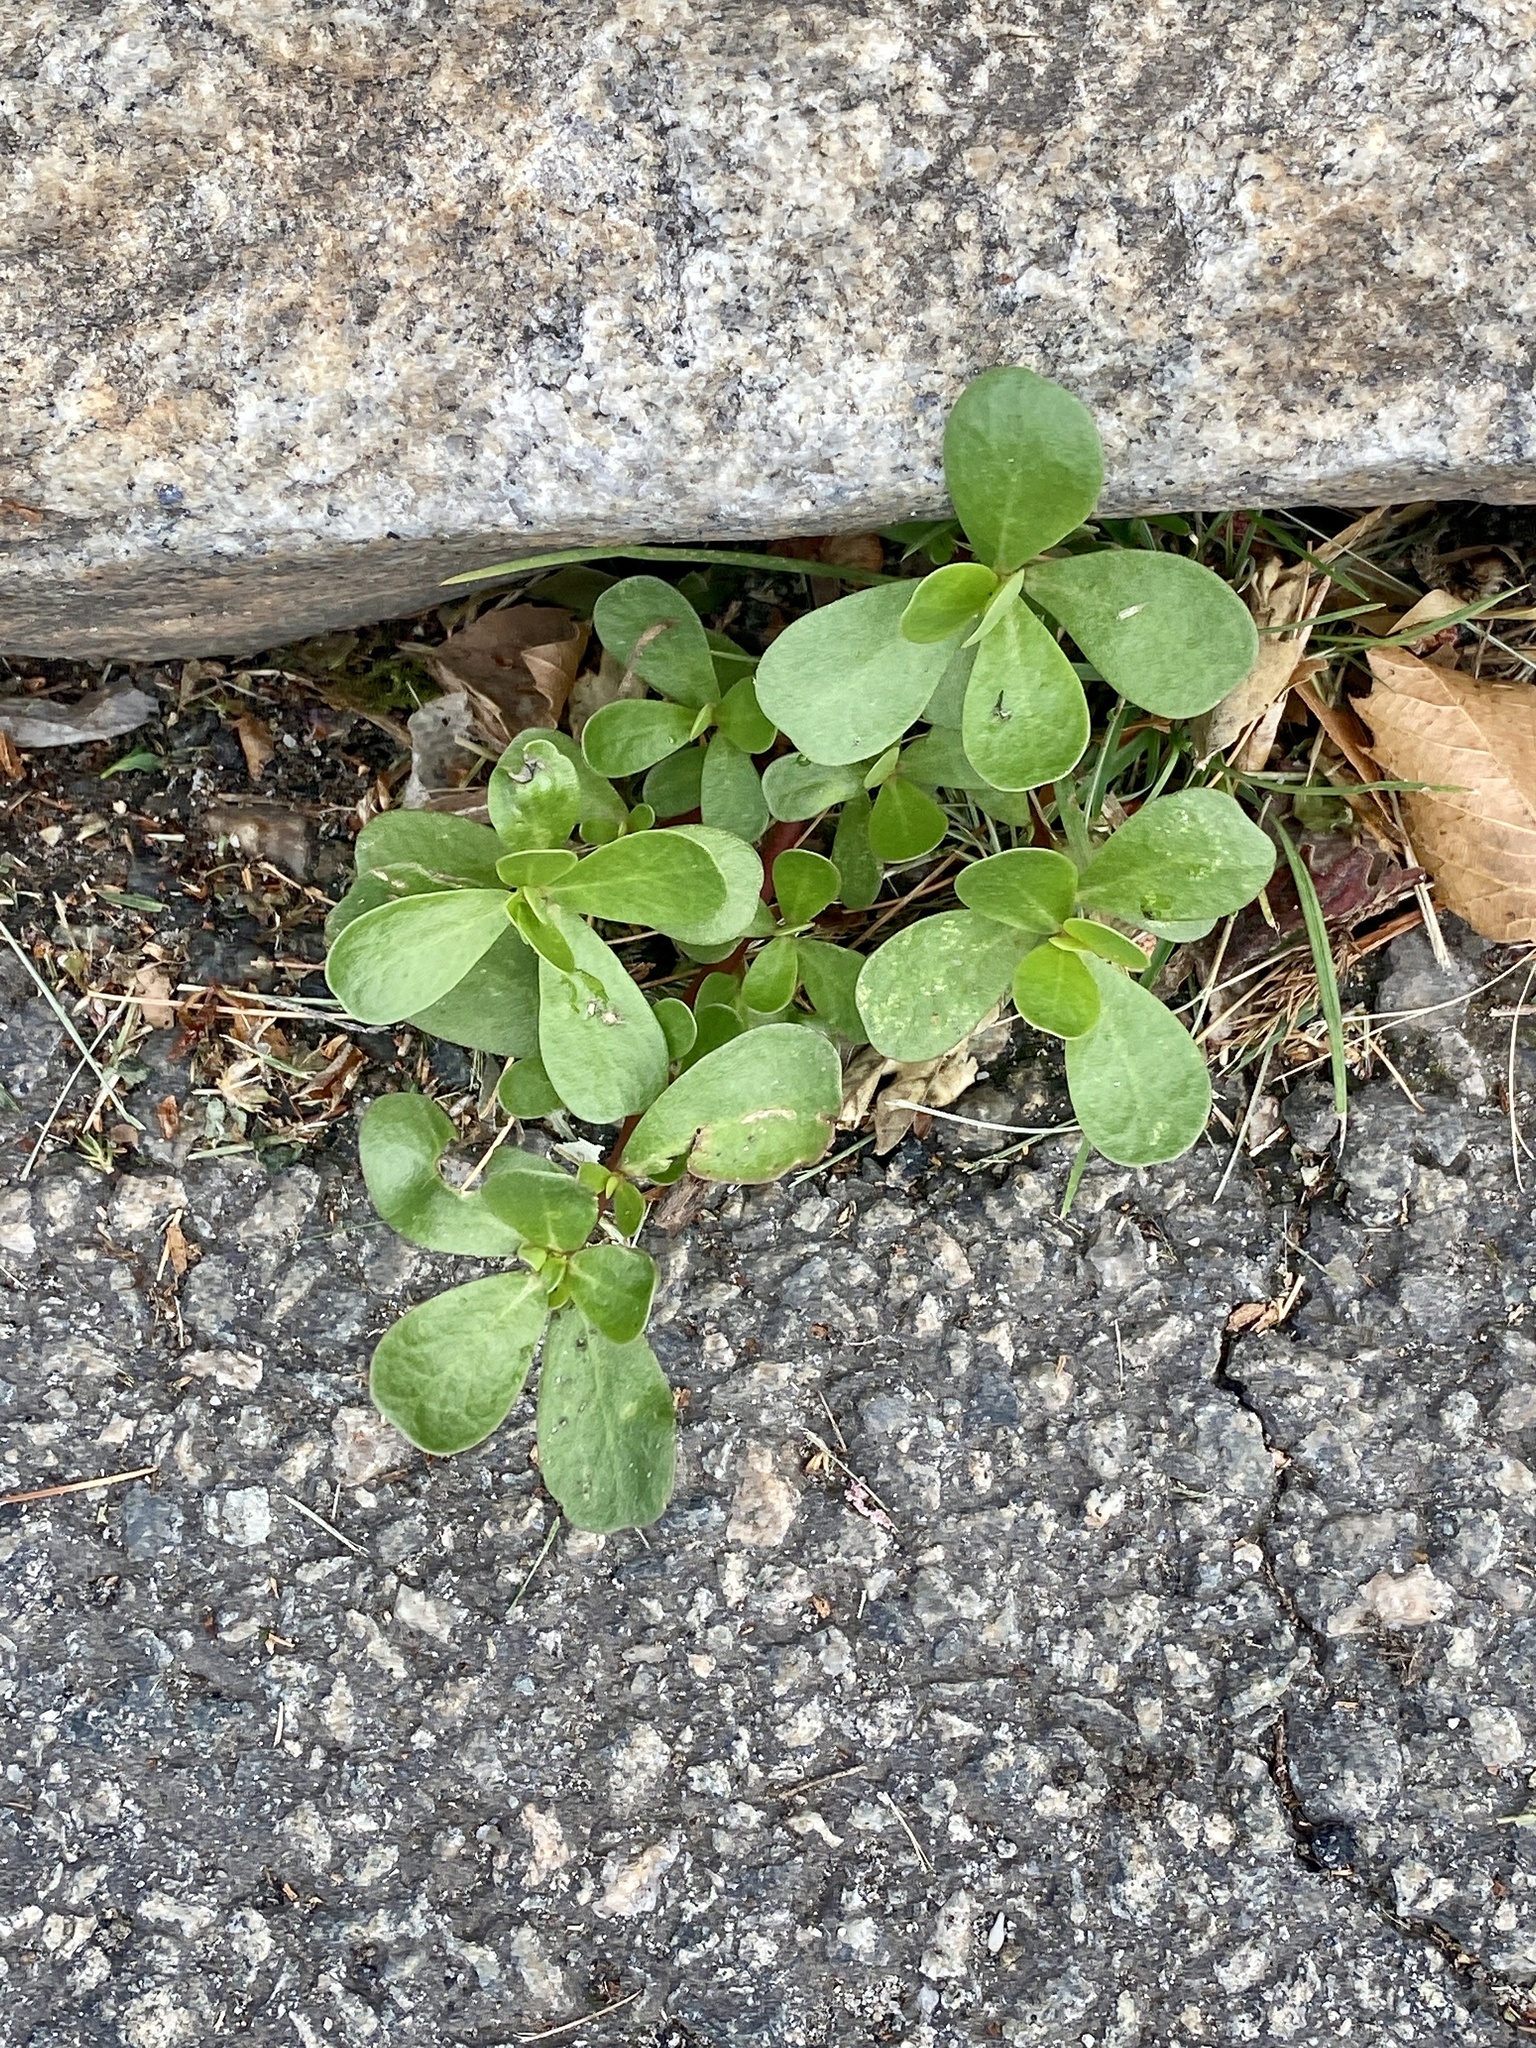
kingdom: Plantae
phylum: Tracheophyta
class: Magnoliopsida
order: Caryophyllales
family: Portulacaceae
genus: Portulaca
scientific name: Portulaca oleracea
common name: Common purslane
